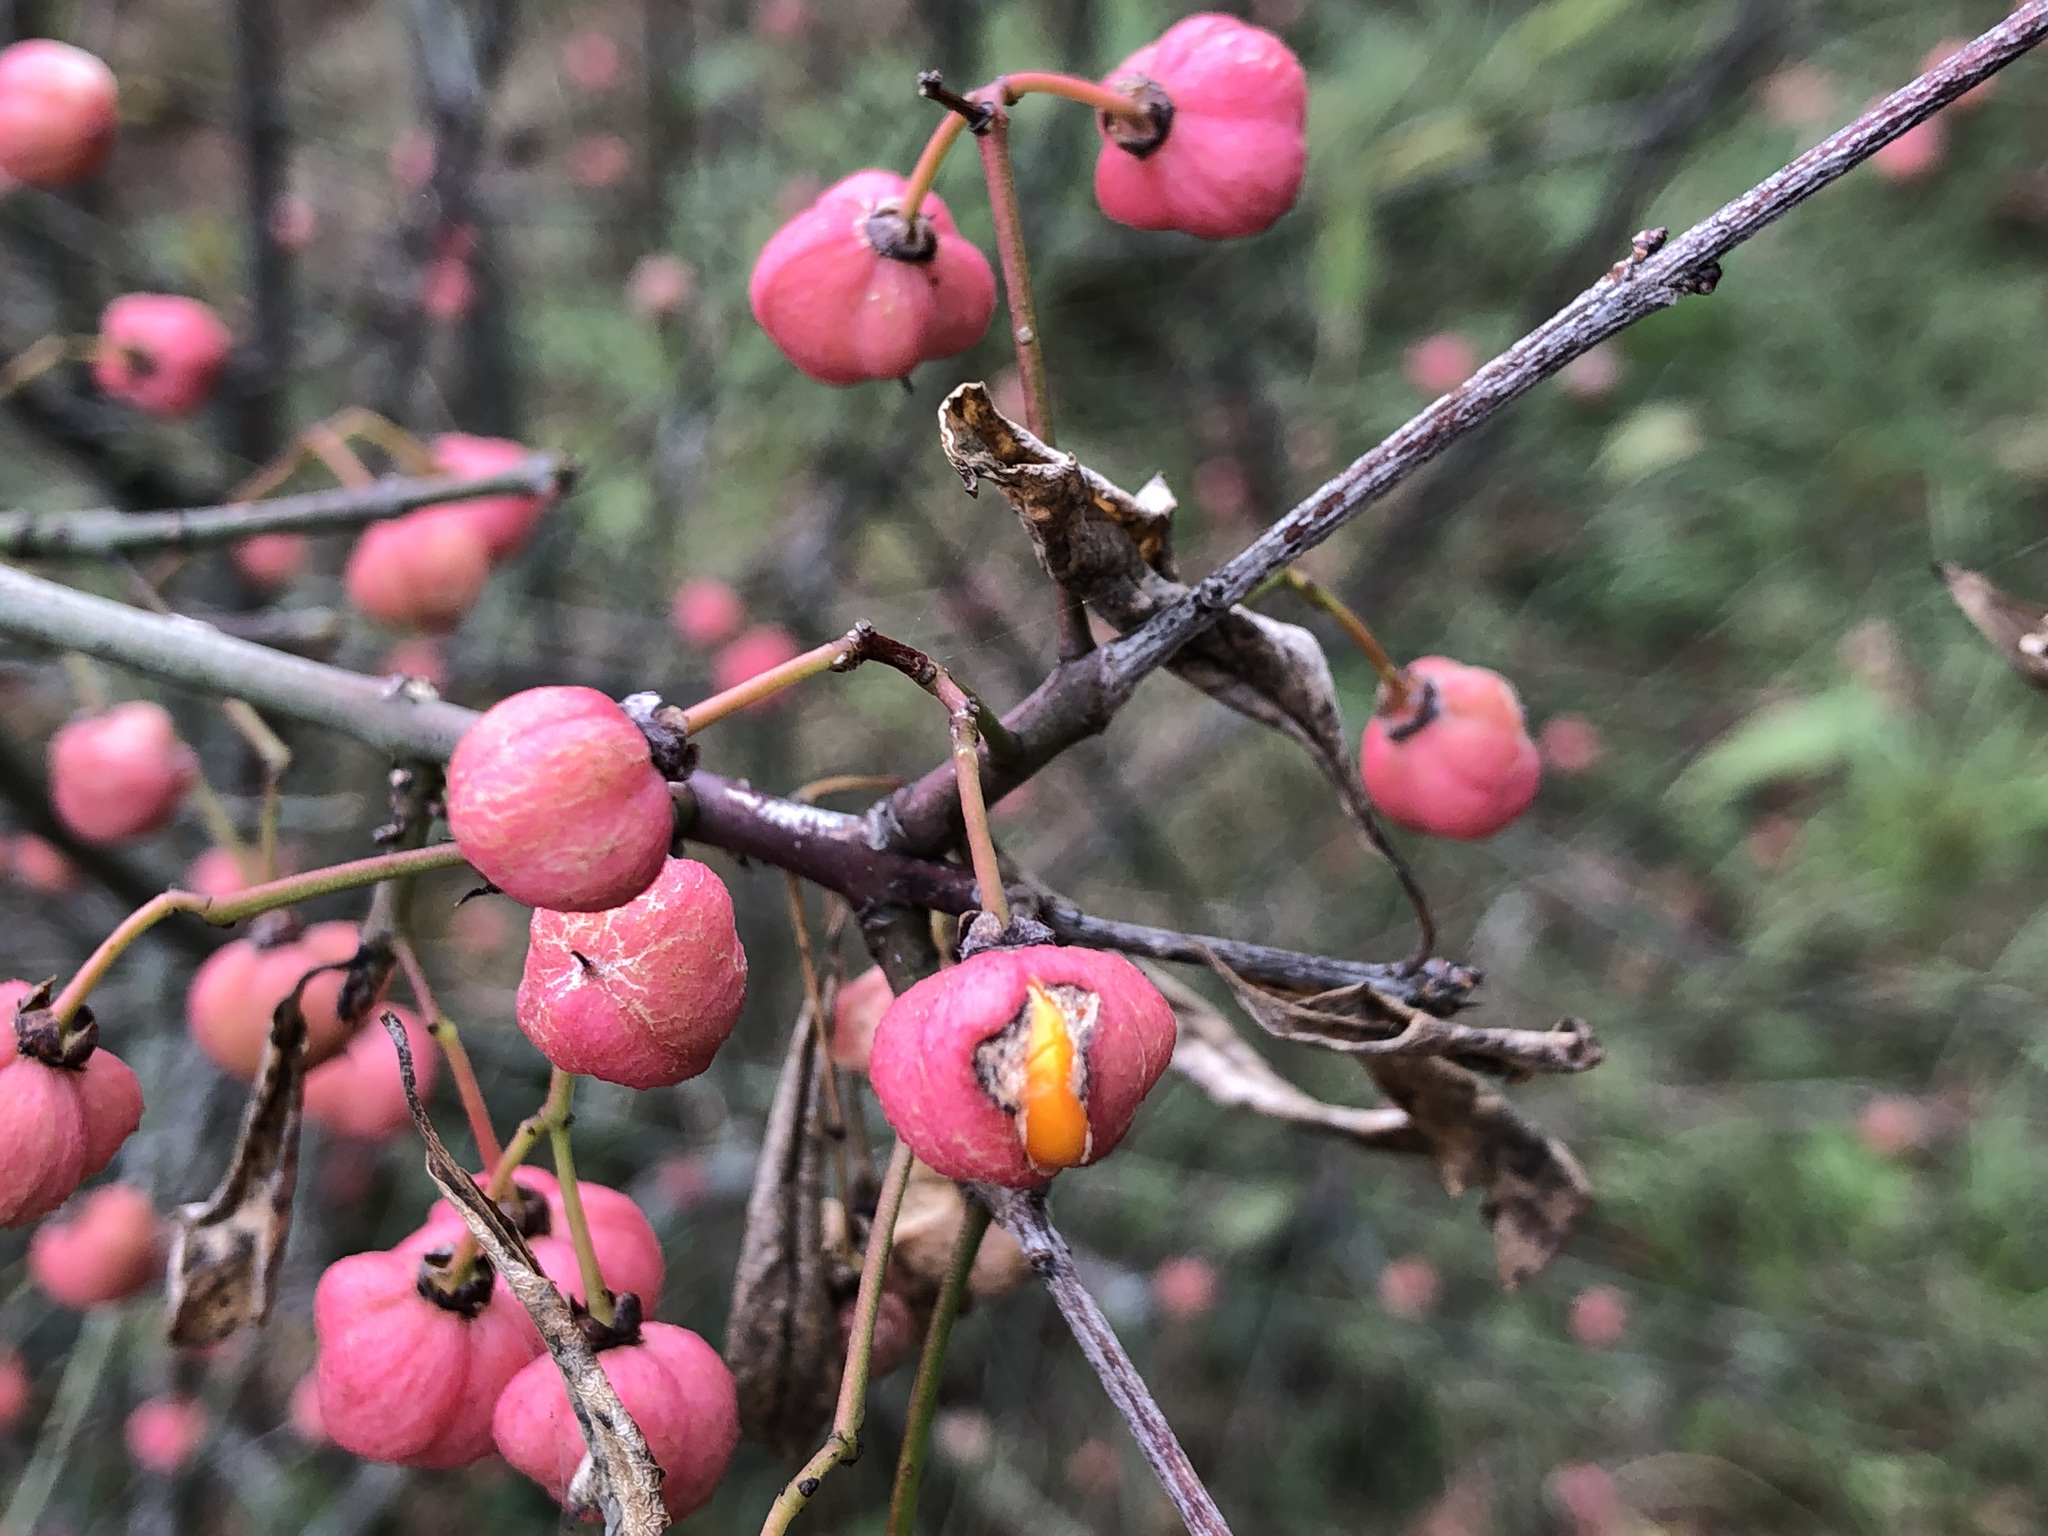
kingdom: Plantae
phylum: Tracheophyta
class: Magnoliopsida
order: Celastrales
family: Celastraceae
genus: Euonymus
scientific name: Euonymus europaeus
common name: Spindle
